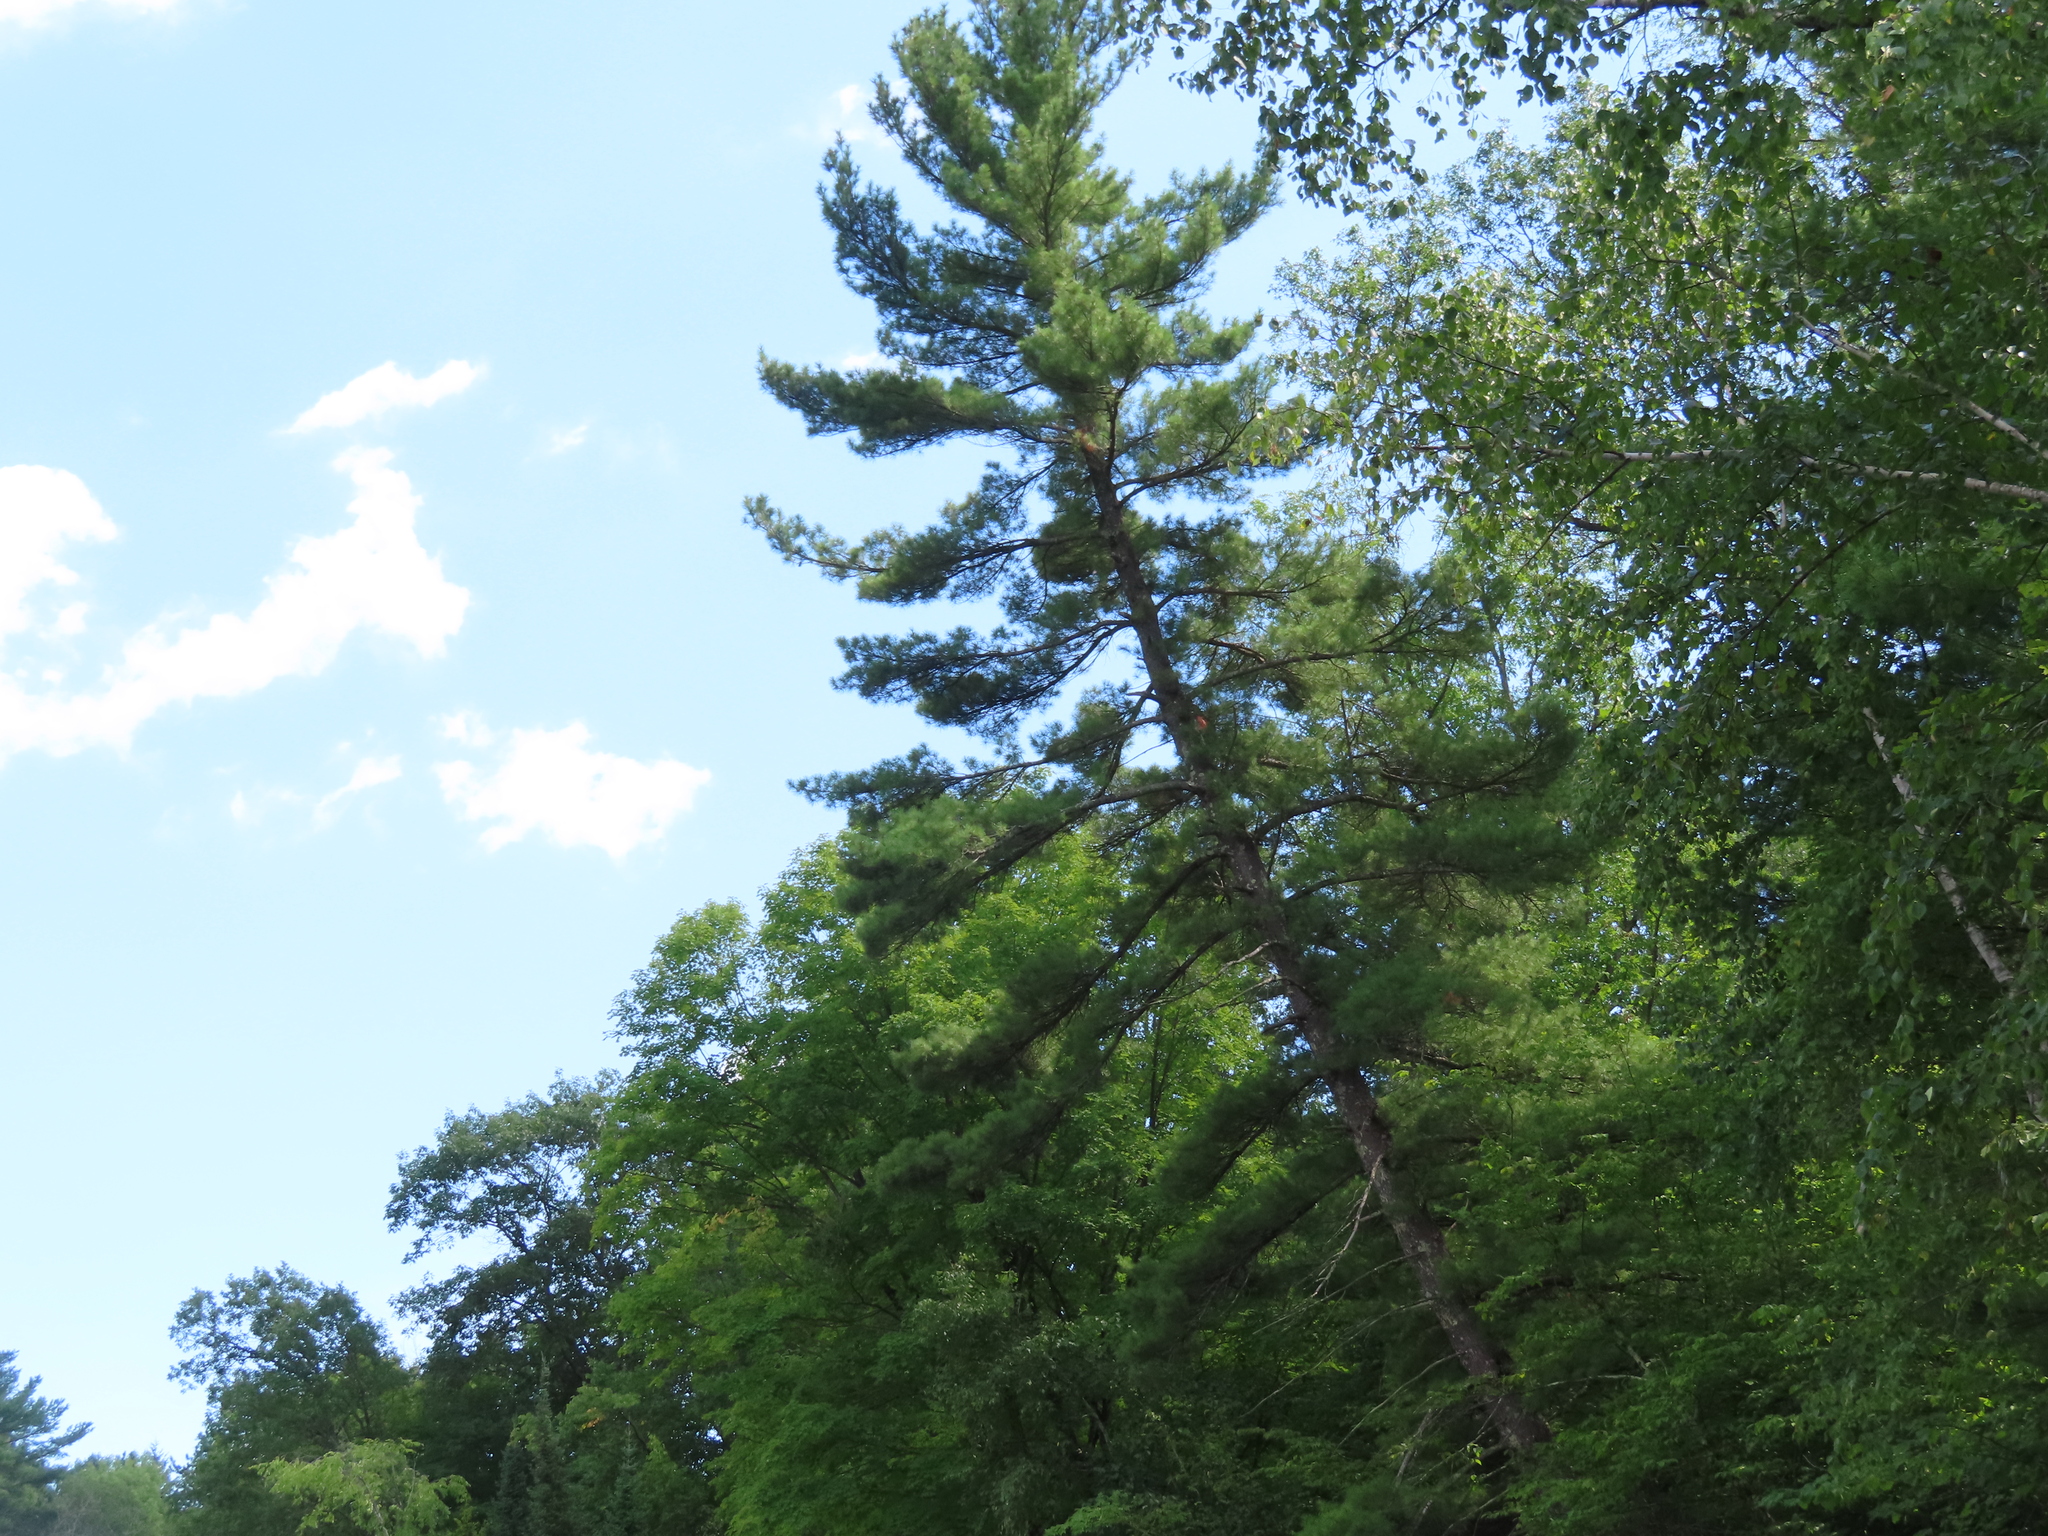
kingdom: Plantae
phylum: Tracheophyta
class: Pinopsida
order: Pinales
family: Pinaceae
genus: Pinus
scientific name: Pinus strobus
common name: Weymouth pine
